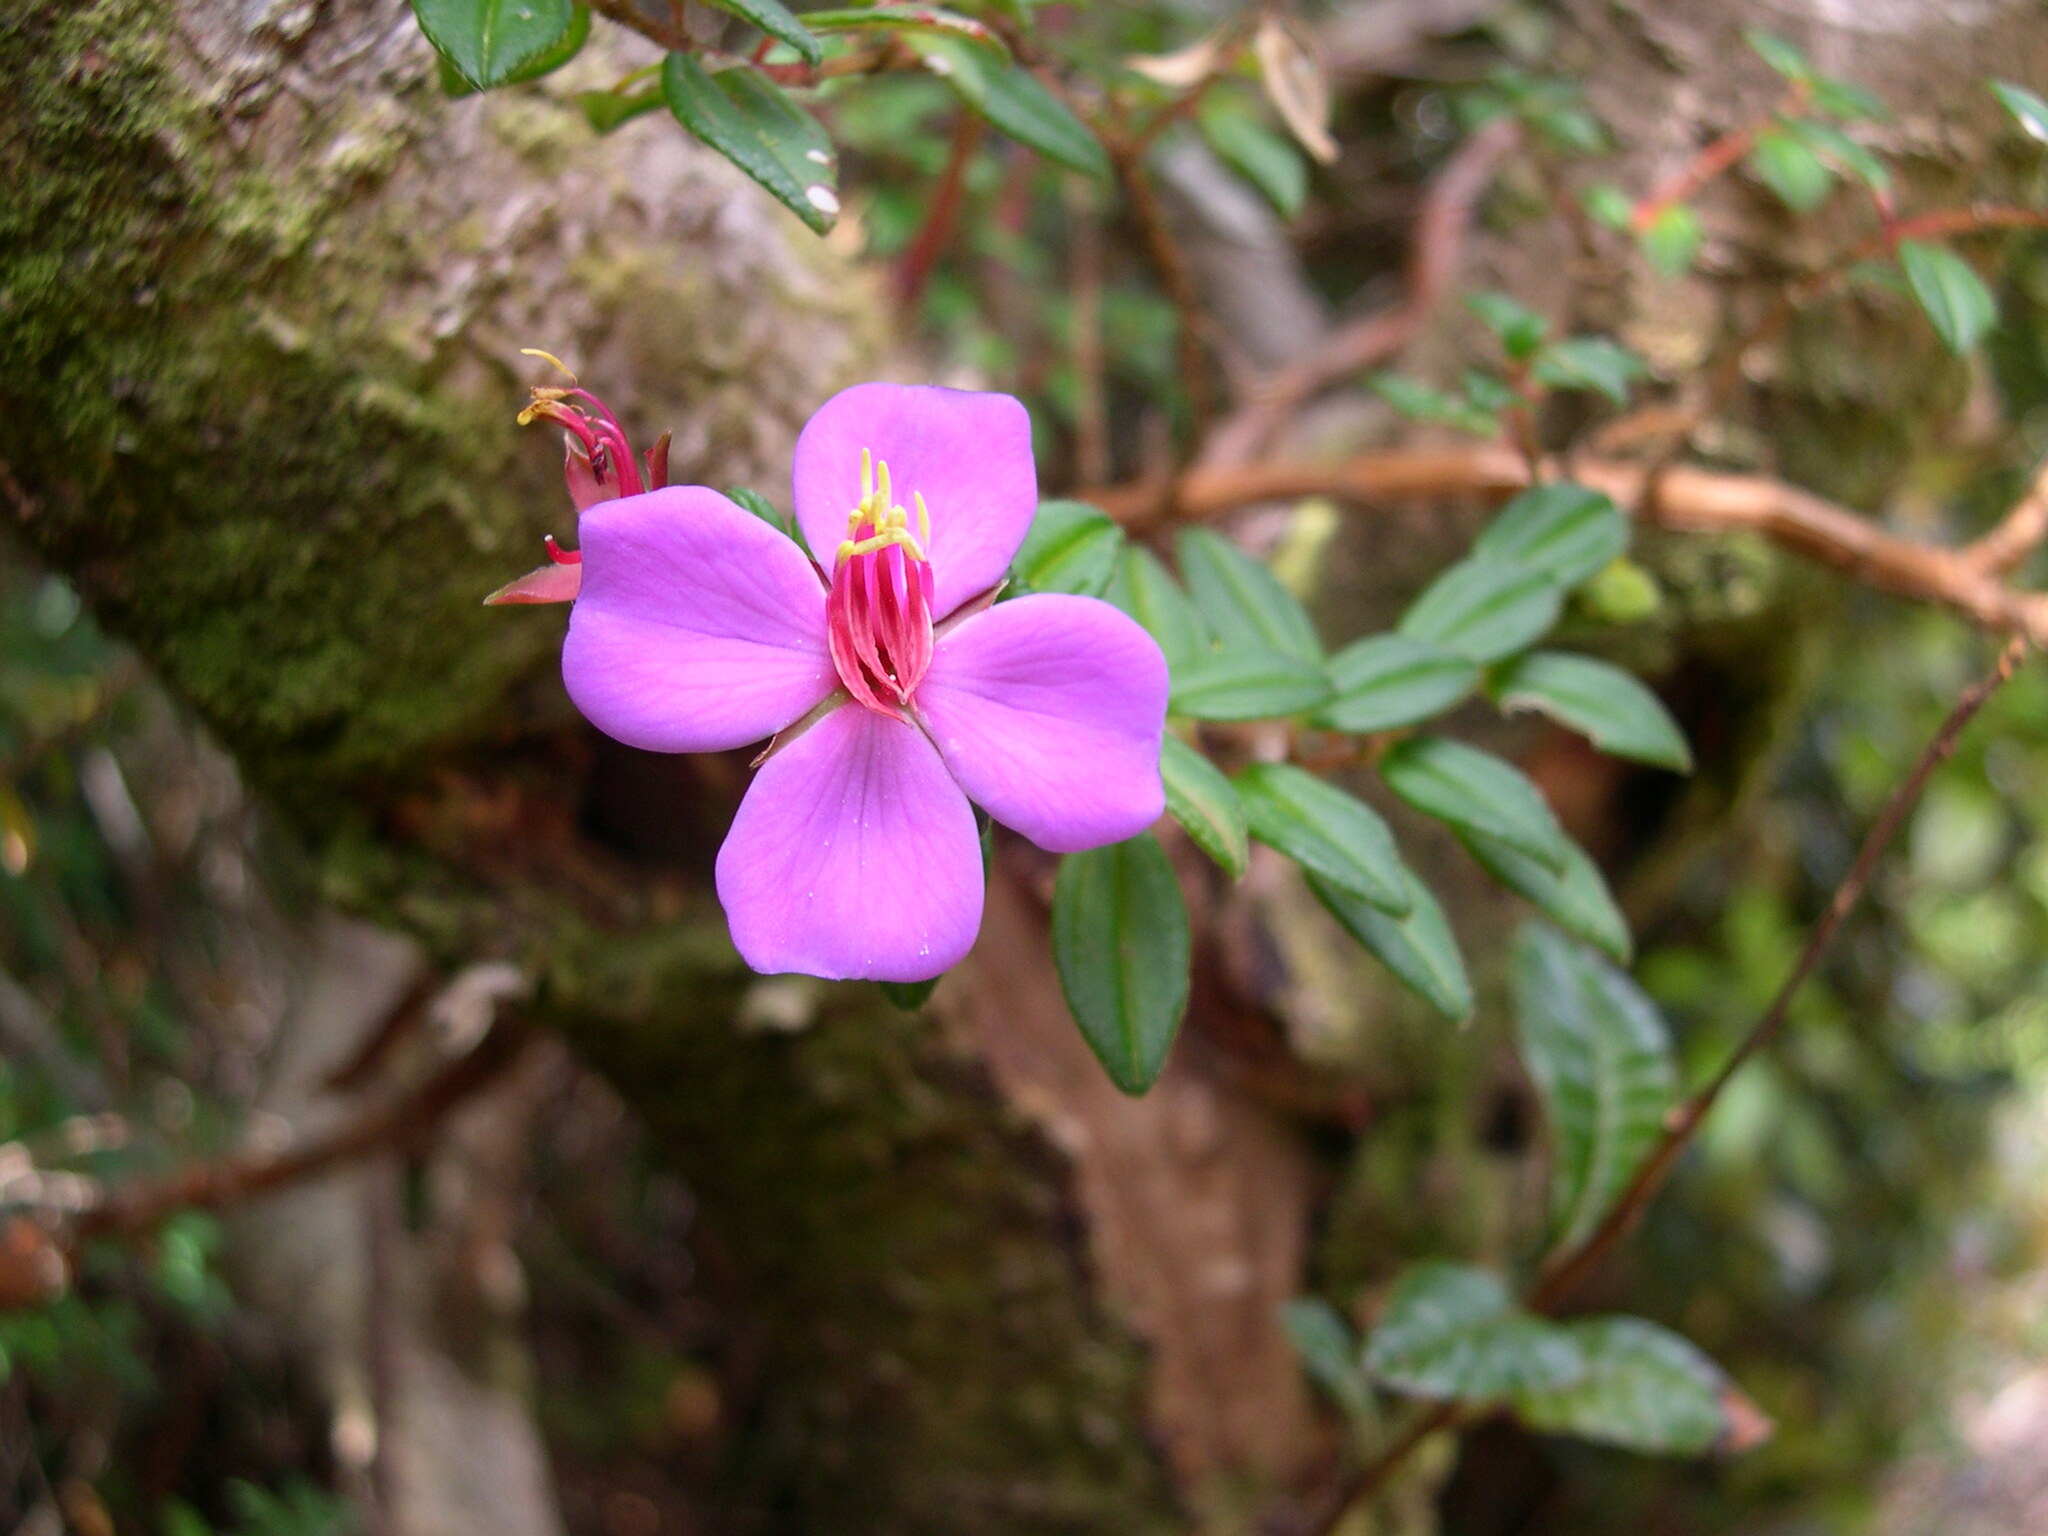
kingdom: Plantae
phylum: Tracheophyta
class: Magnoliopsida
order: Myrtales
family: Melastomataceae
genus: Monochaetum
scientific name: Monochaetum vulcanicum
